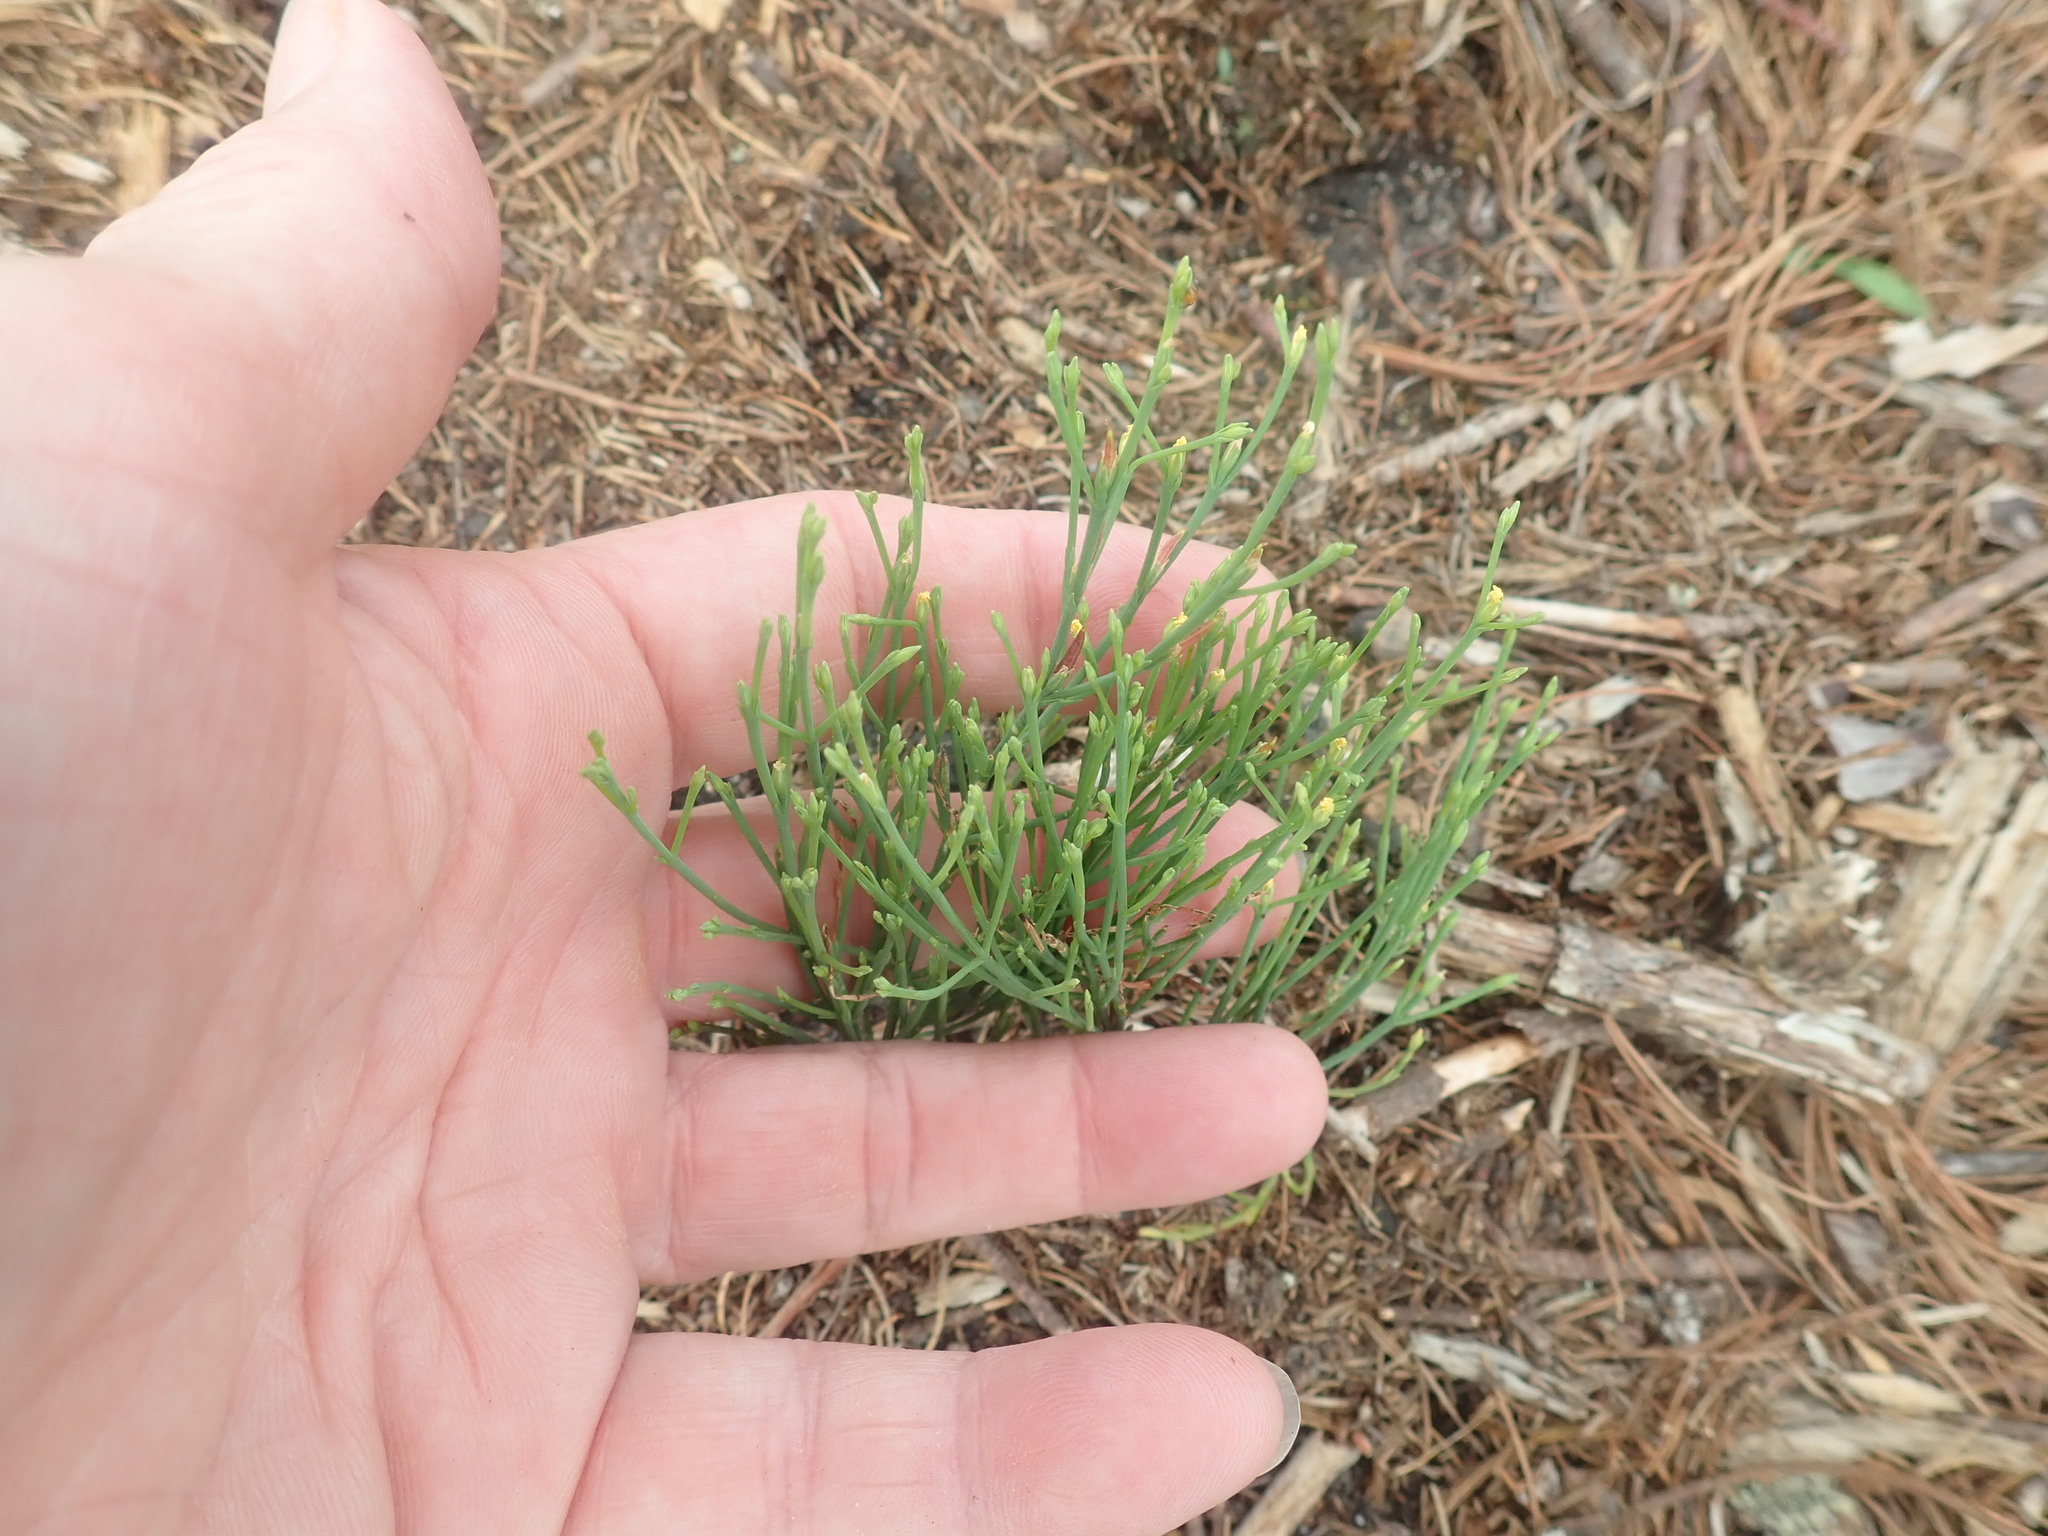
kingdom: Plantae
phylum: Tracheophyta
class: Magnoliopsida
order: Malpighiales
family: Hypericaceae
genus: Hypericum
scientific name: Hypericum gentianoides
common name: Gentian-leaved st. john's-wort
